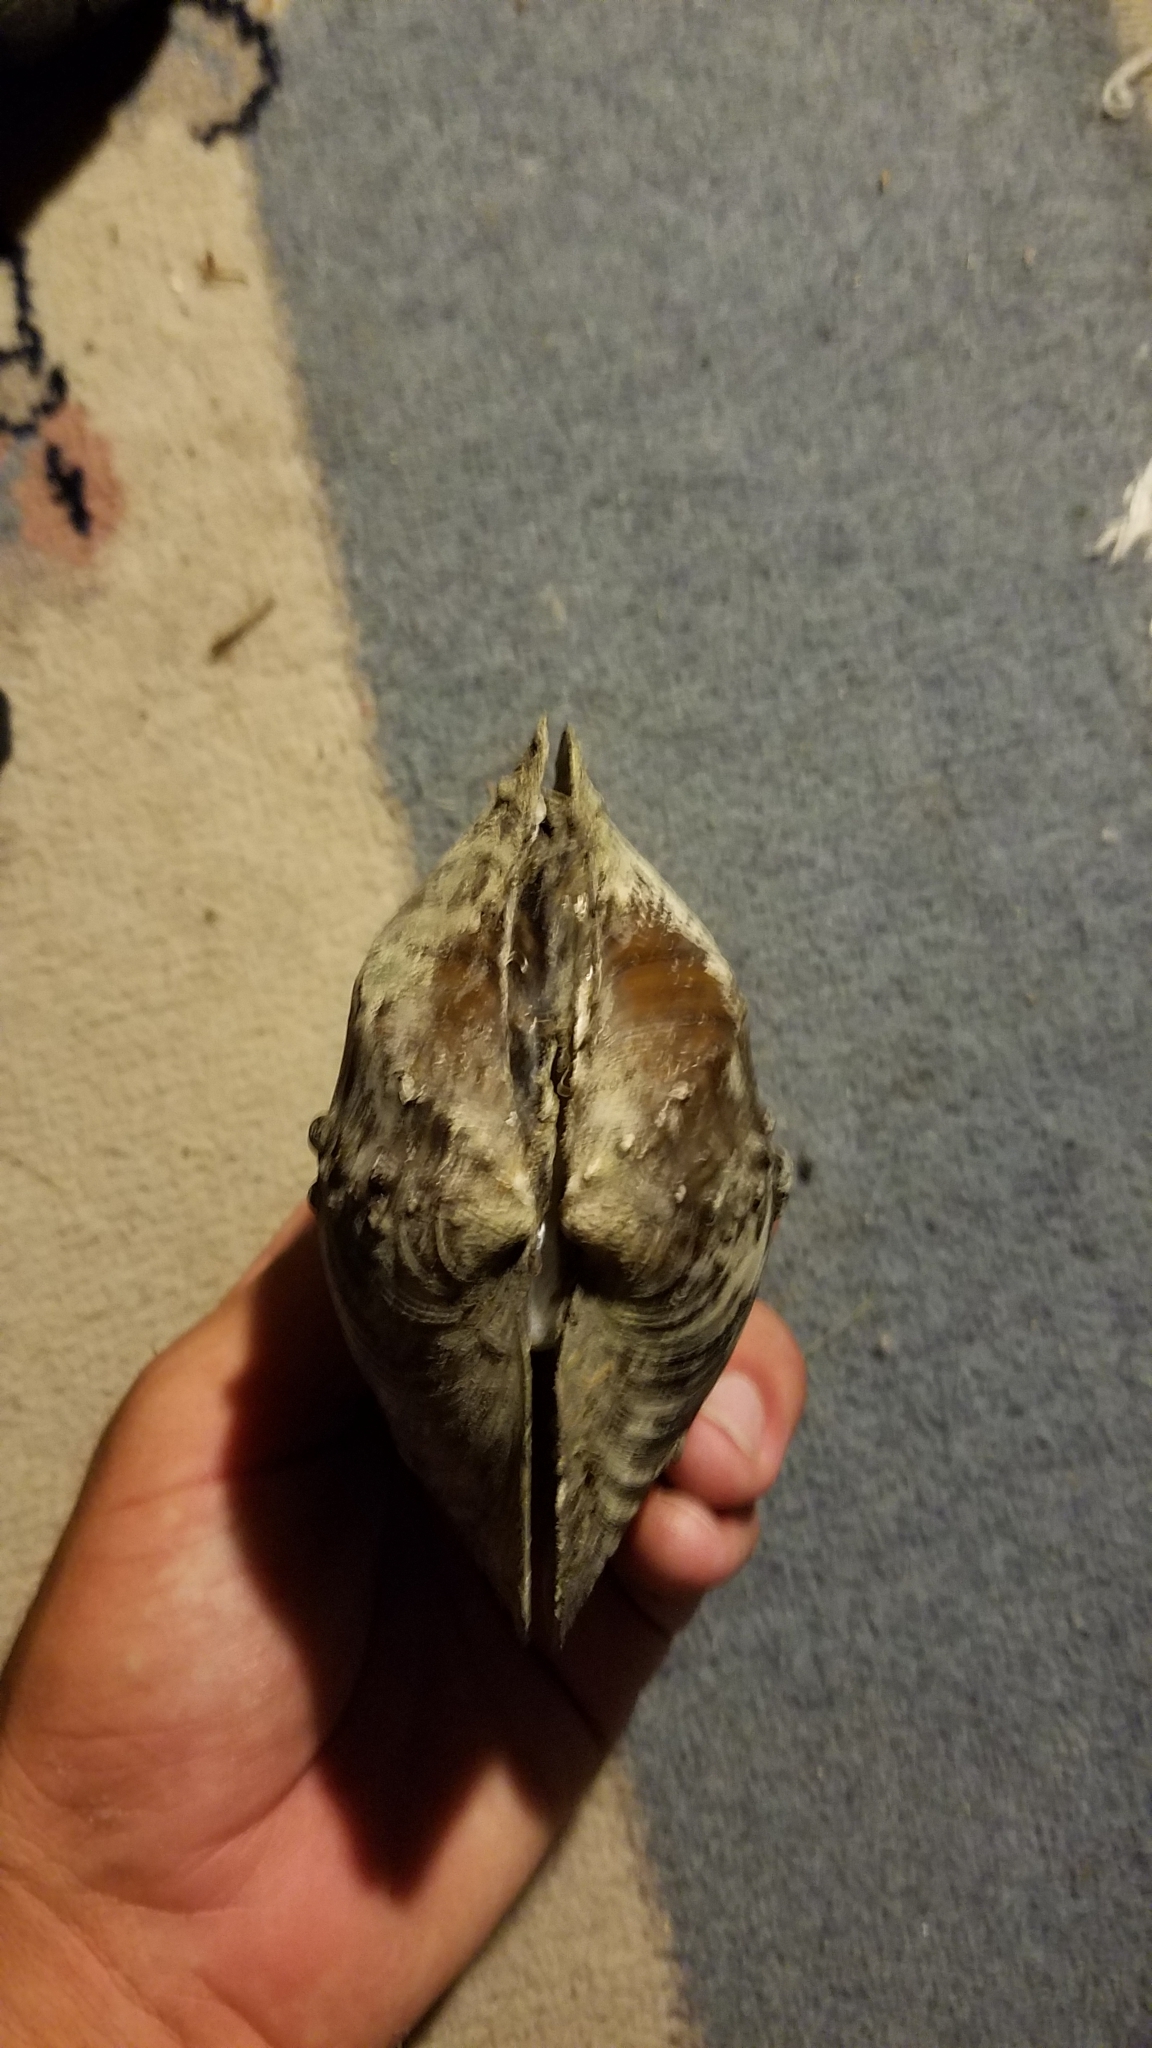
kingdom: Animalia
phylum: Mollusca
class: Bivalvia
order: Unionida
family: Unionidae
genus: Quadrula
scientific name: Quadrula quadrula
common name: Mapleleaf
